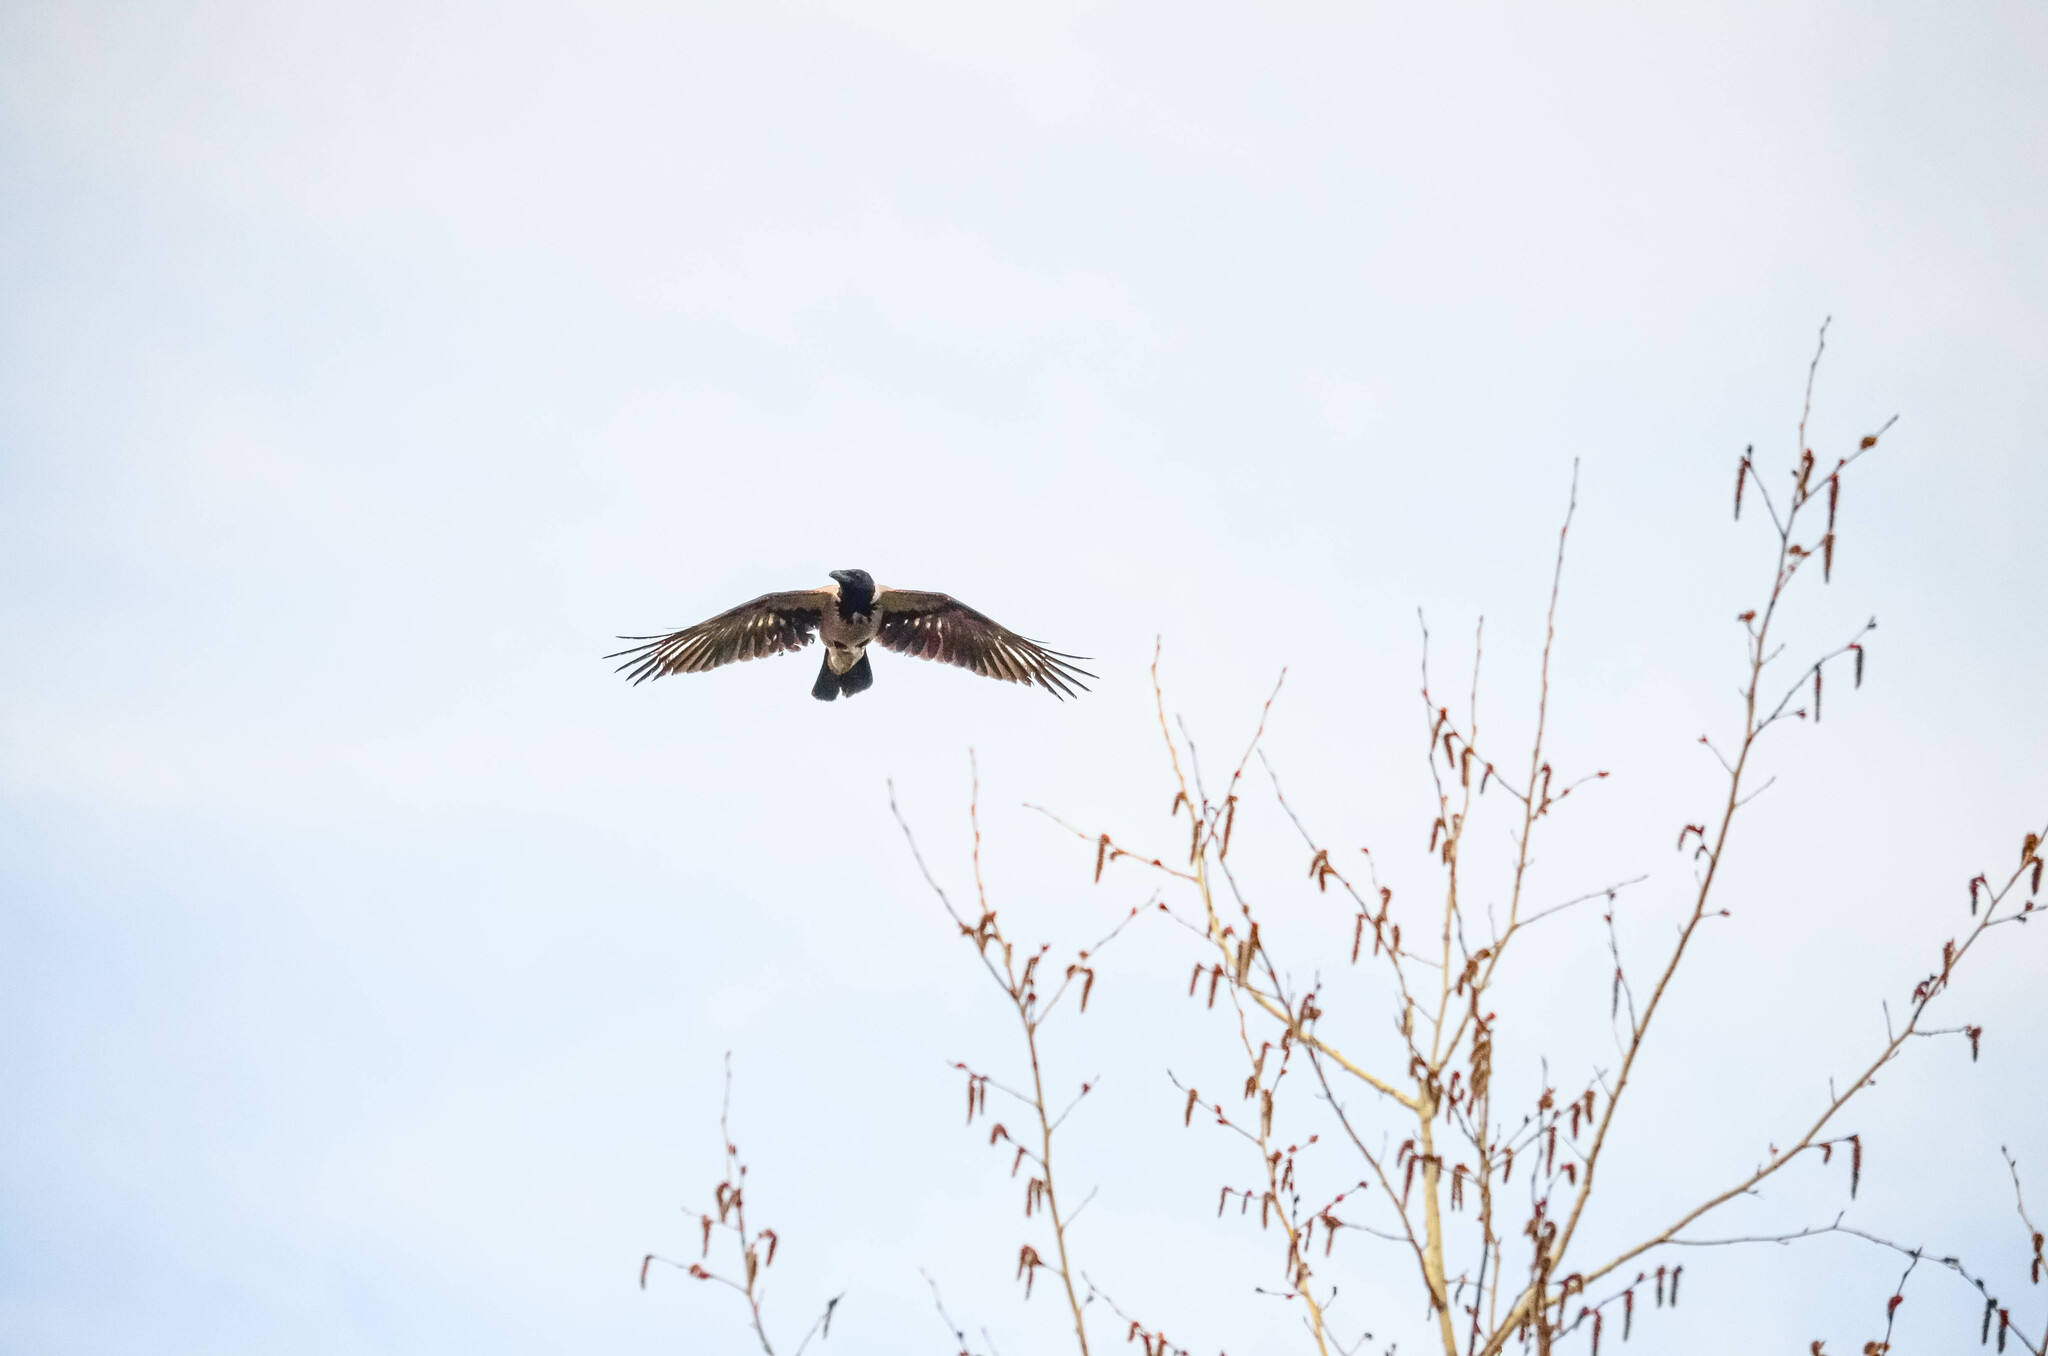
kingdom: Animalia
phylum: Chordata
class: Aves
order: Passeriformes
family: Corvidae
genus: Corvus
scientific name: Corvus cornix
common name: Hooded crow
